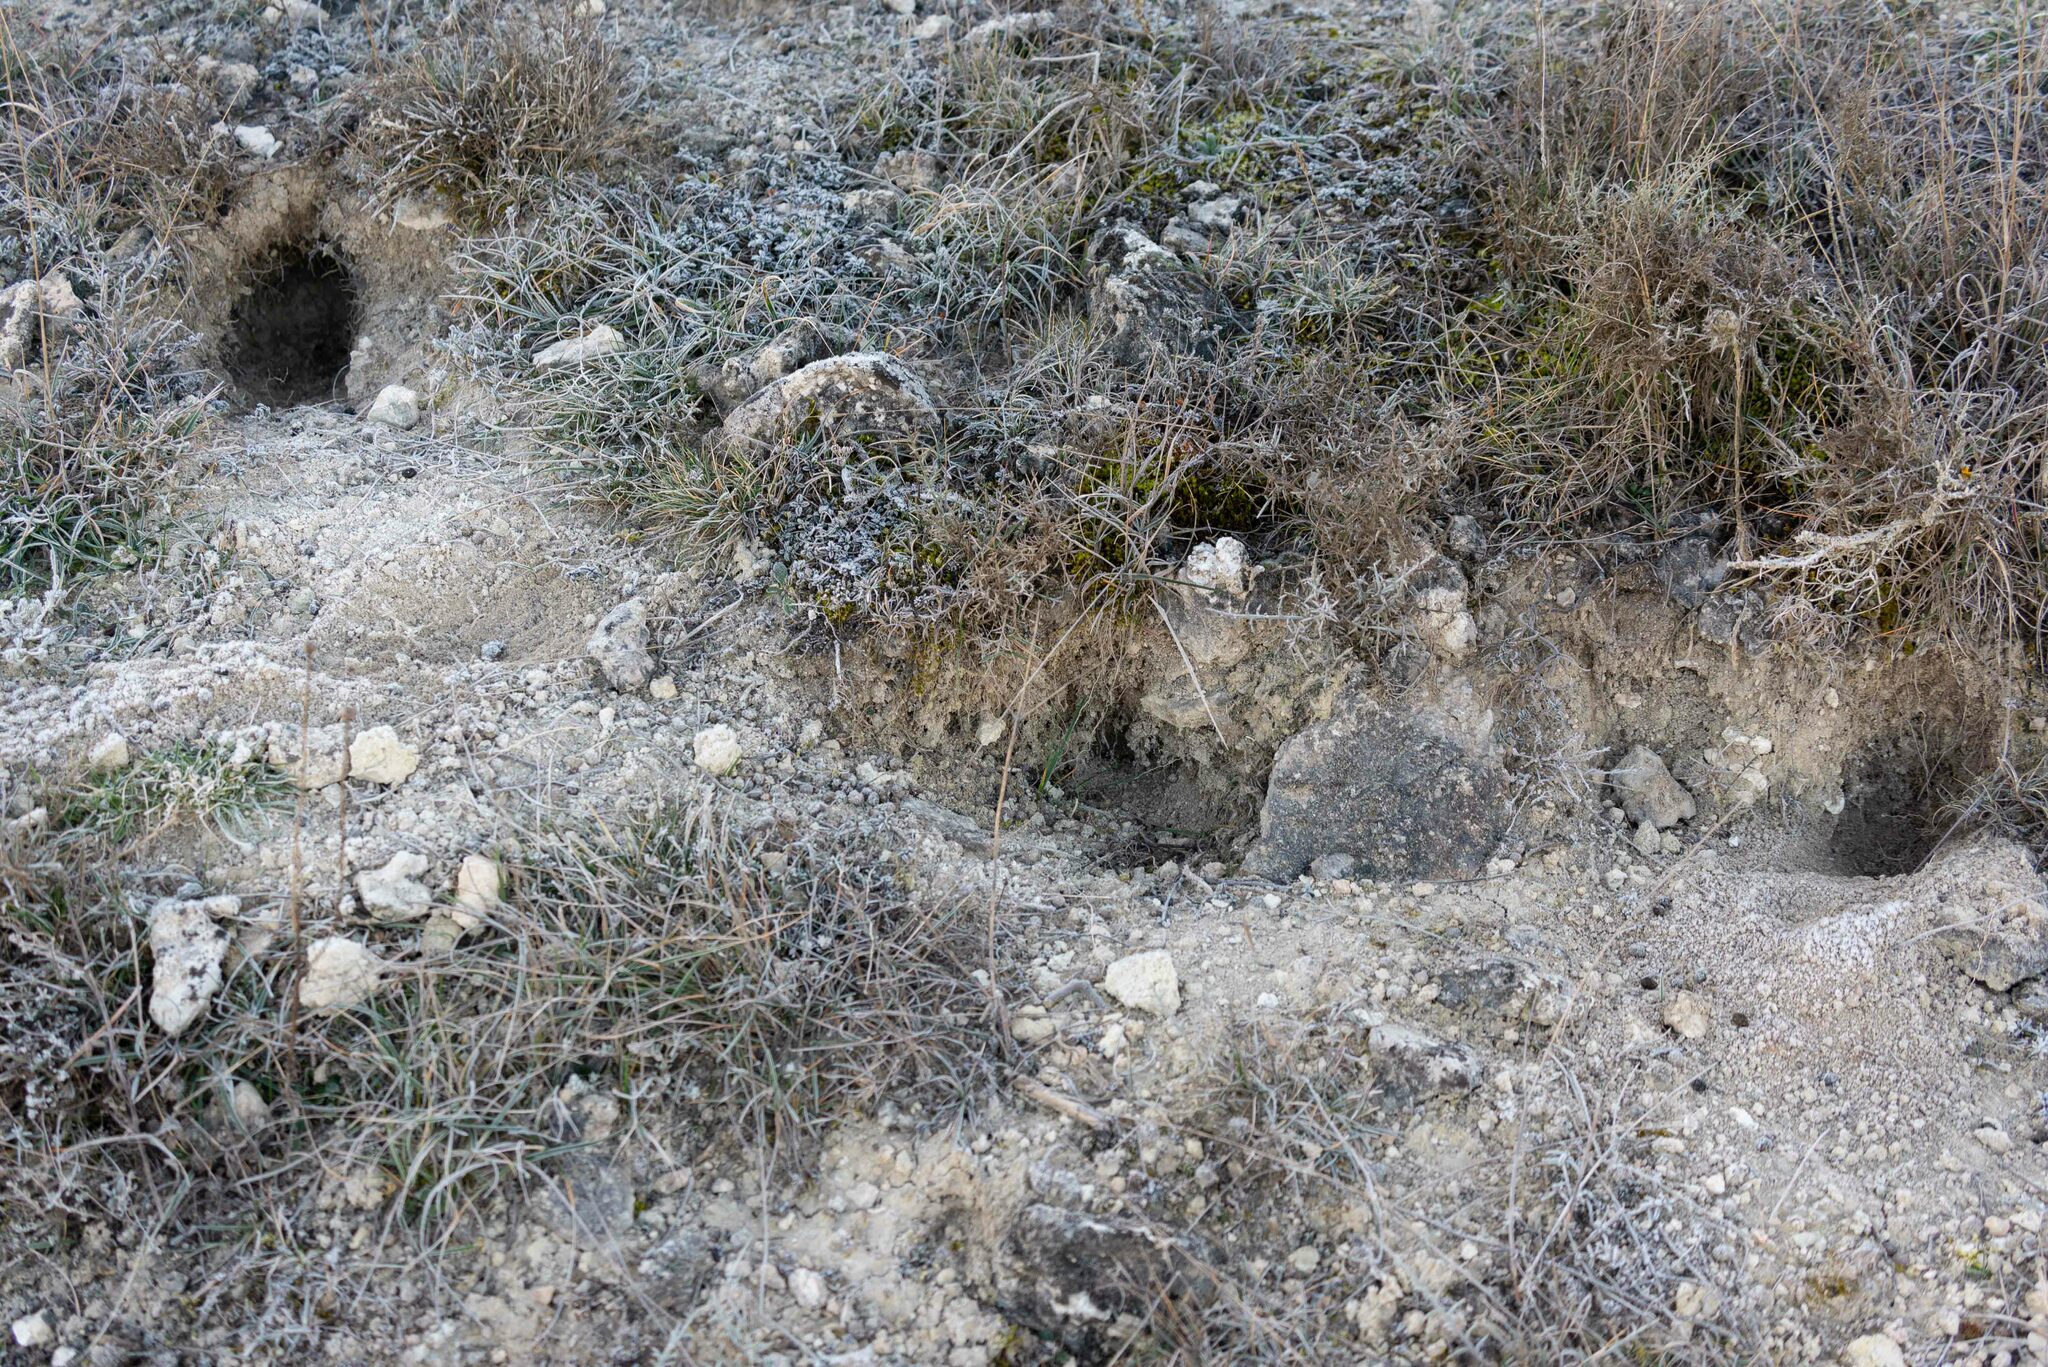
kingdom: Animalia
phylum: Chordata
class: Mammalia
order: Lagomorpha
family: Leporidae
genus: Oryctolagus
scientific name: Oryctolagus cuniculus
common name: European rabbit
